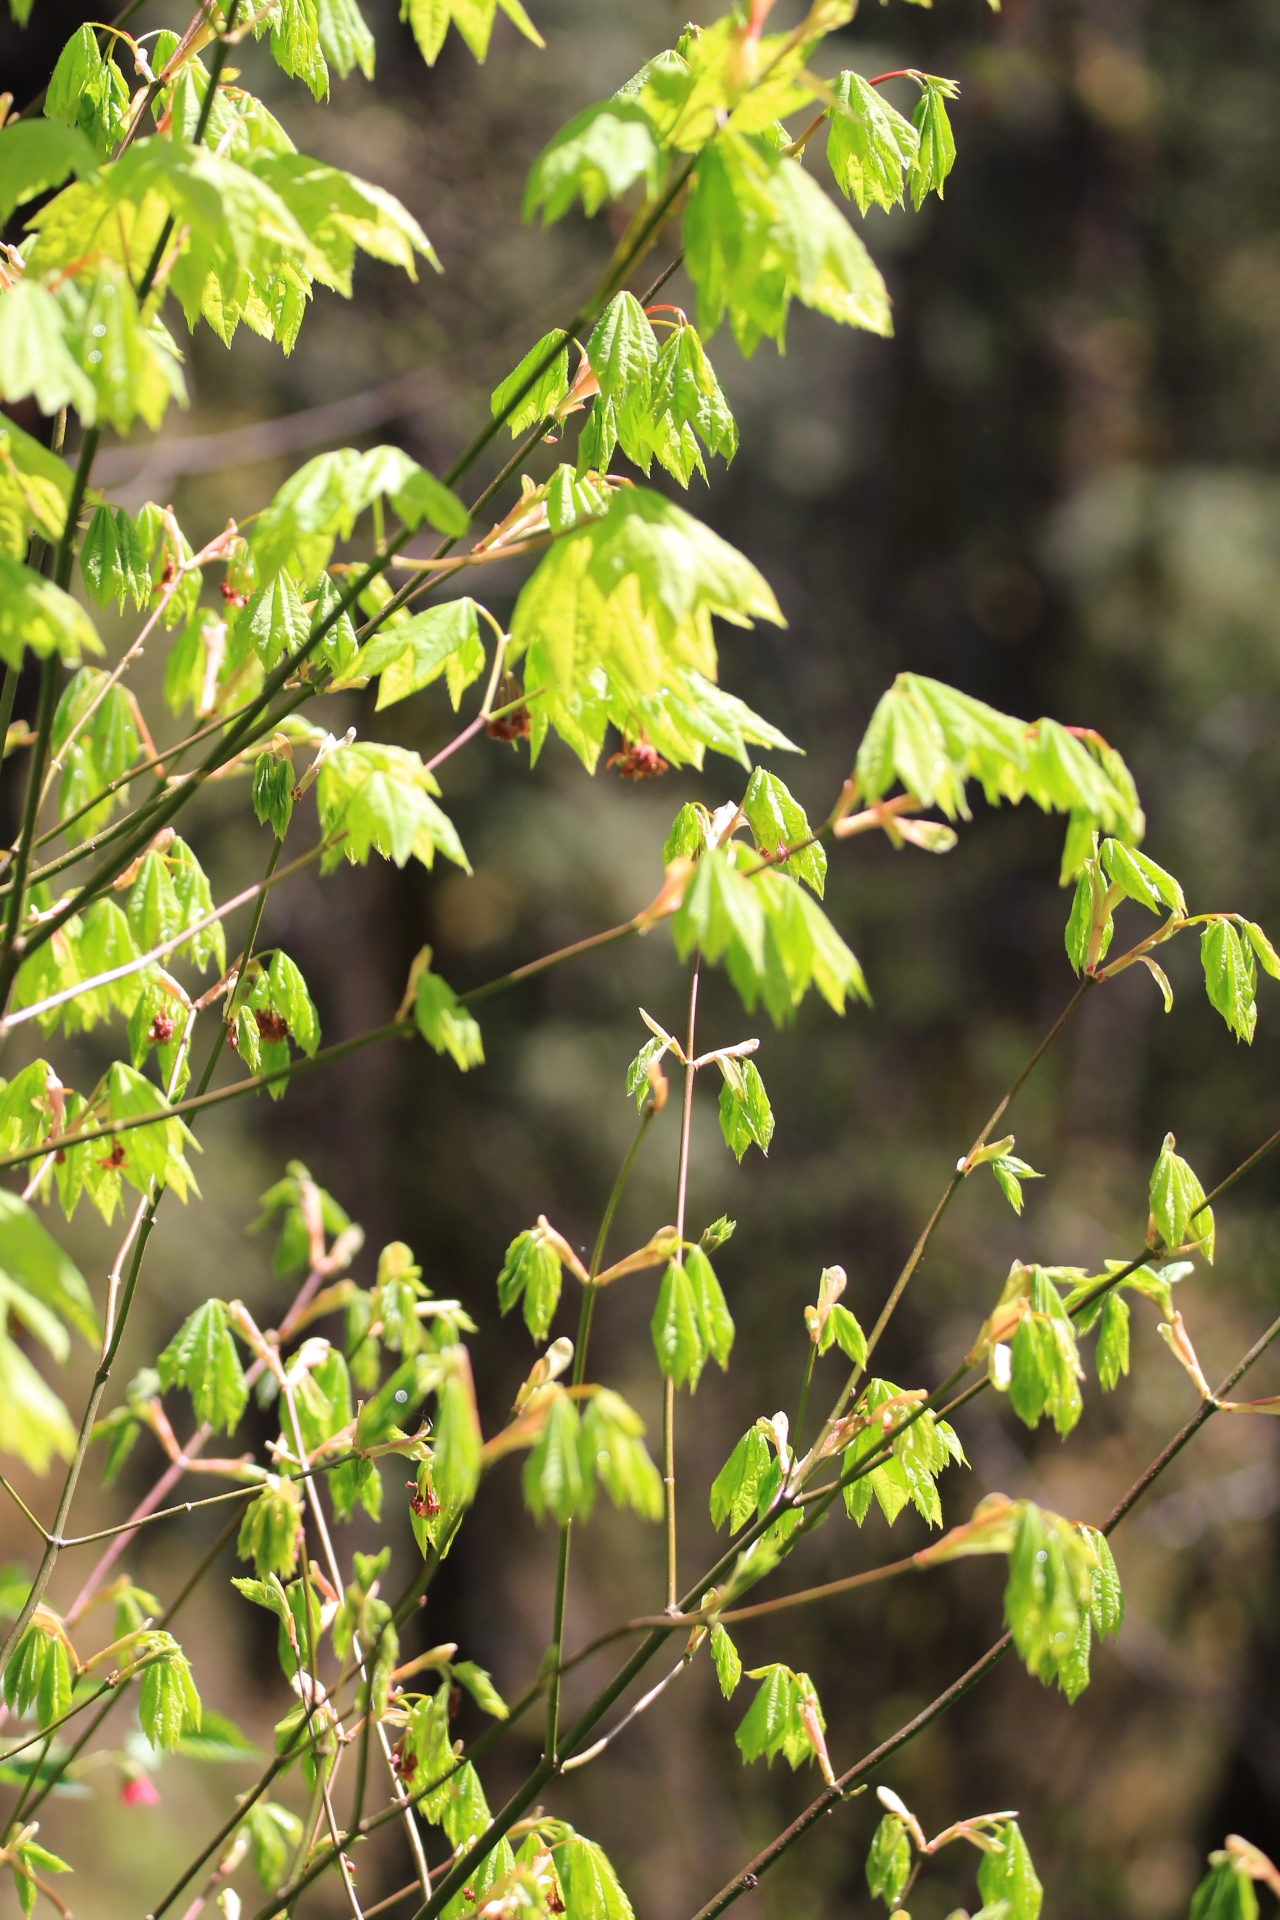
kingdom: Plantae
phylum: Tracheophyta
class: Magnoliopsida
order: Sapindales
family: Sapindaceae
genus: Acer
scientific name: Acer circinatum
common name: Vine maple
